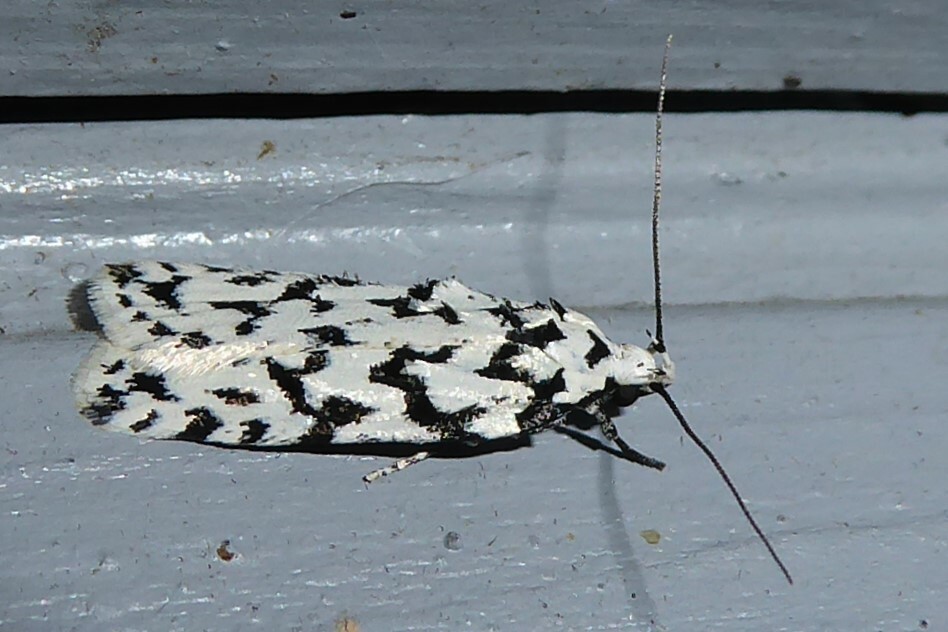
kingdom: Animalia
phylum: Arthropoda
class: Insecta
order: Lepidoptera
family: Oecophoridae
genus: Izatha
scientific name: Izatha katadiktya
